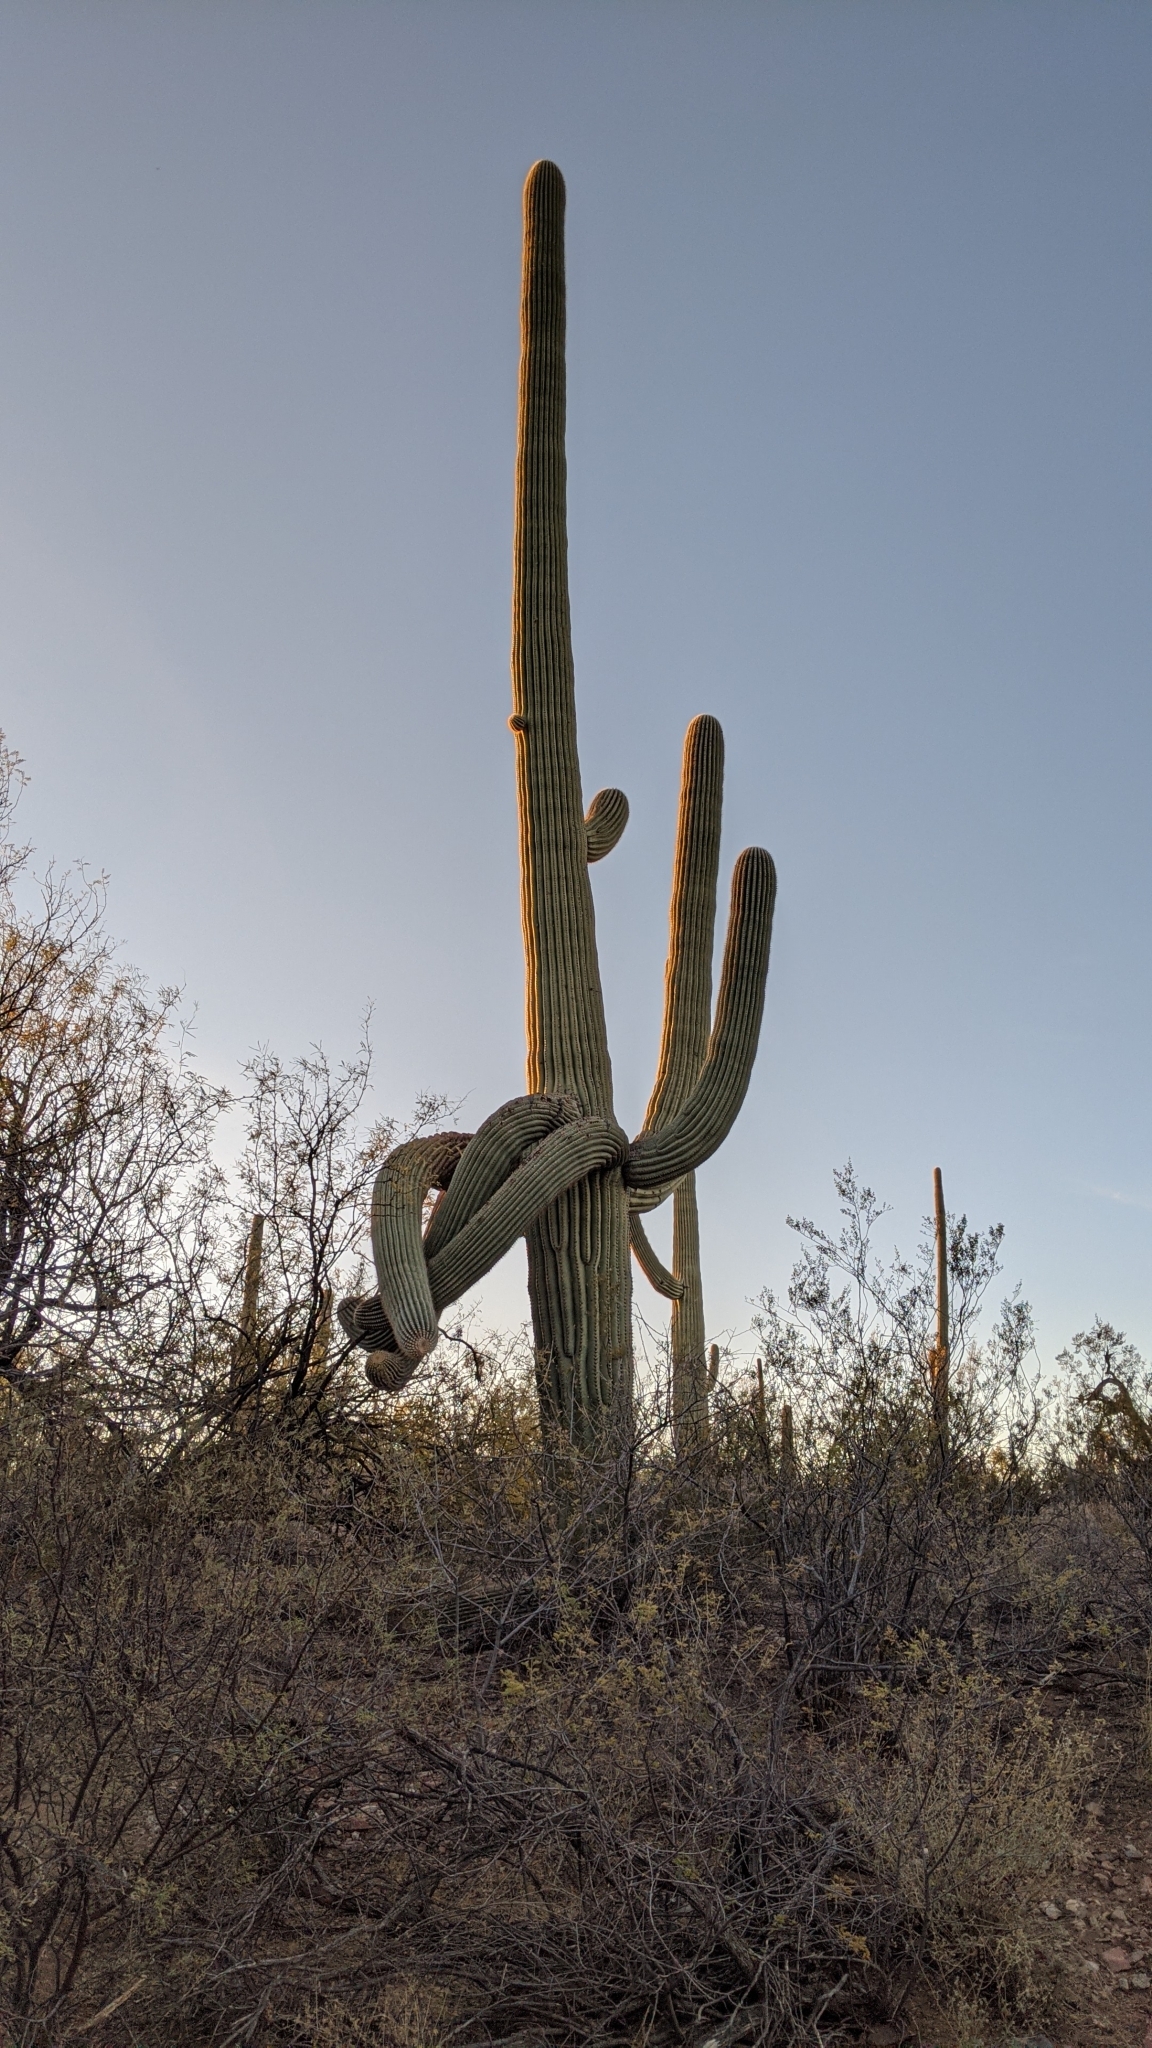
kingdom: Plantae
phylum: Tracheophyta
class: Magnoliopsida
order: Caryophyllales
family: Cactaceae
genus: Carnegiea
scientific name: Carnegiea gigantea
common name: Saguaro
